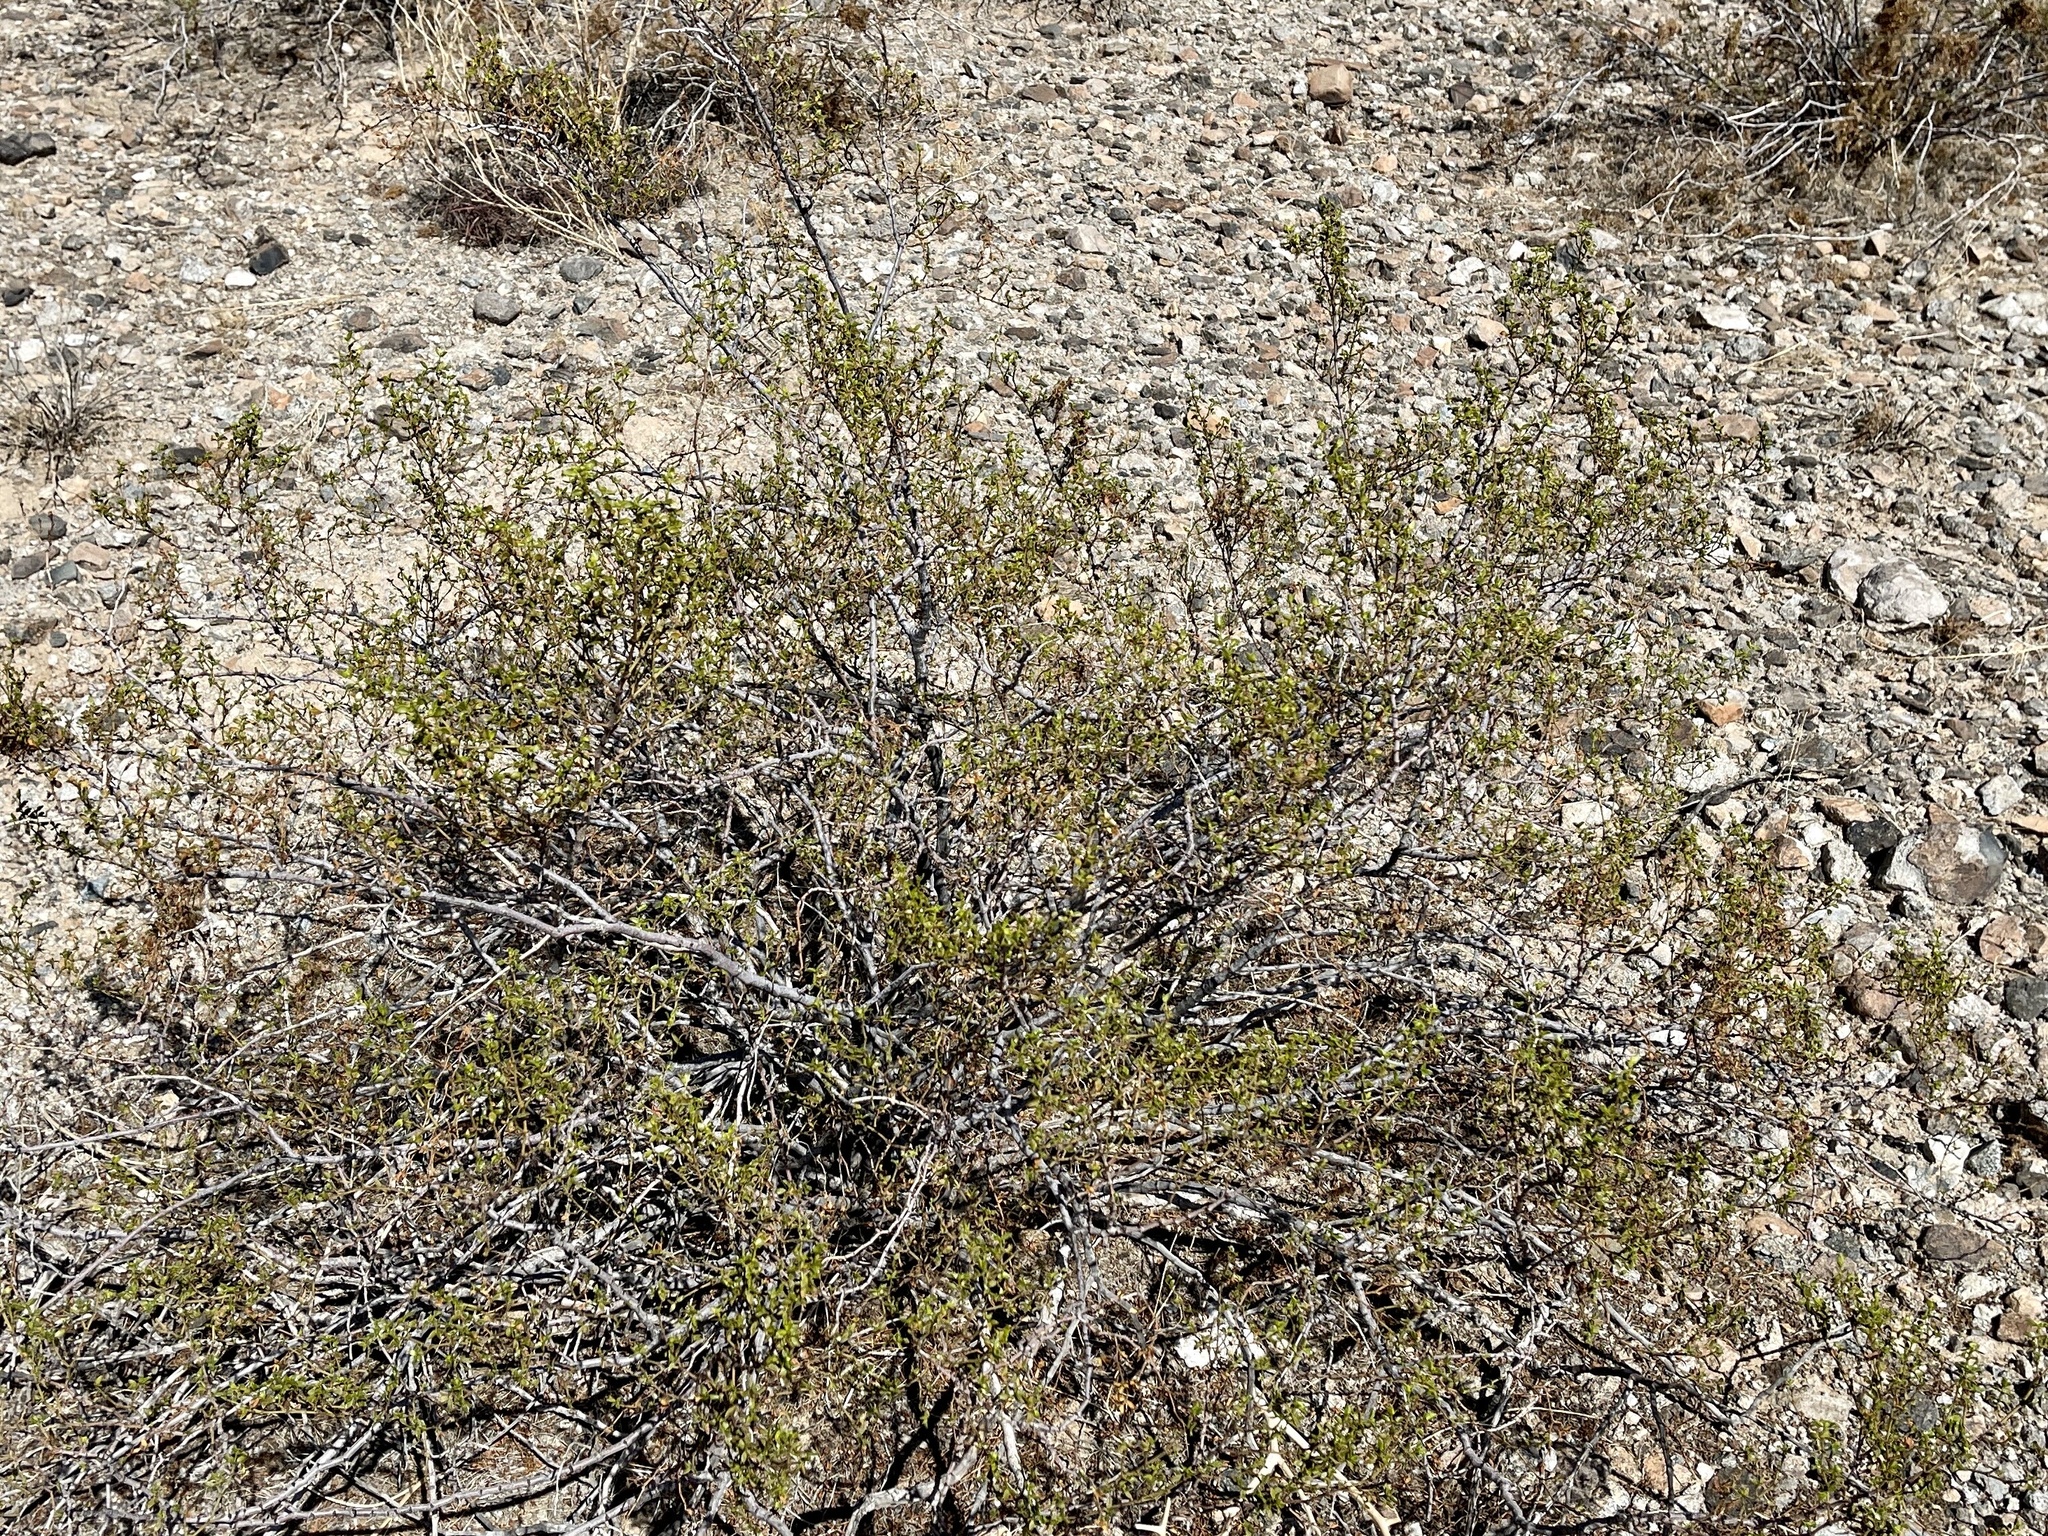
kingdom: Plantae
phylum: Tracheophyta
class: Magnoliopsida
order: Zygophyllales
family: Zygophyllaceae
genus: Larrea
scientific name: Larrea tridentata
